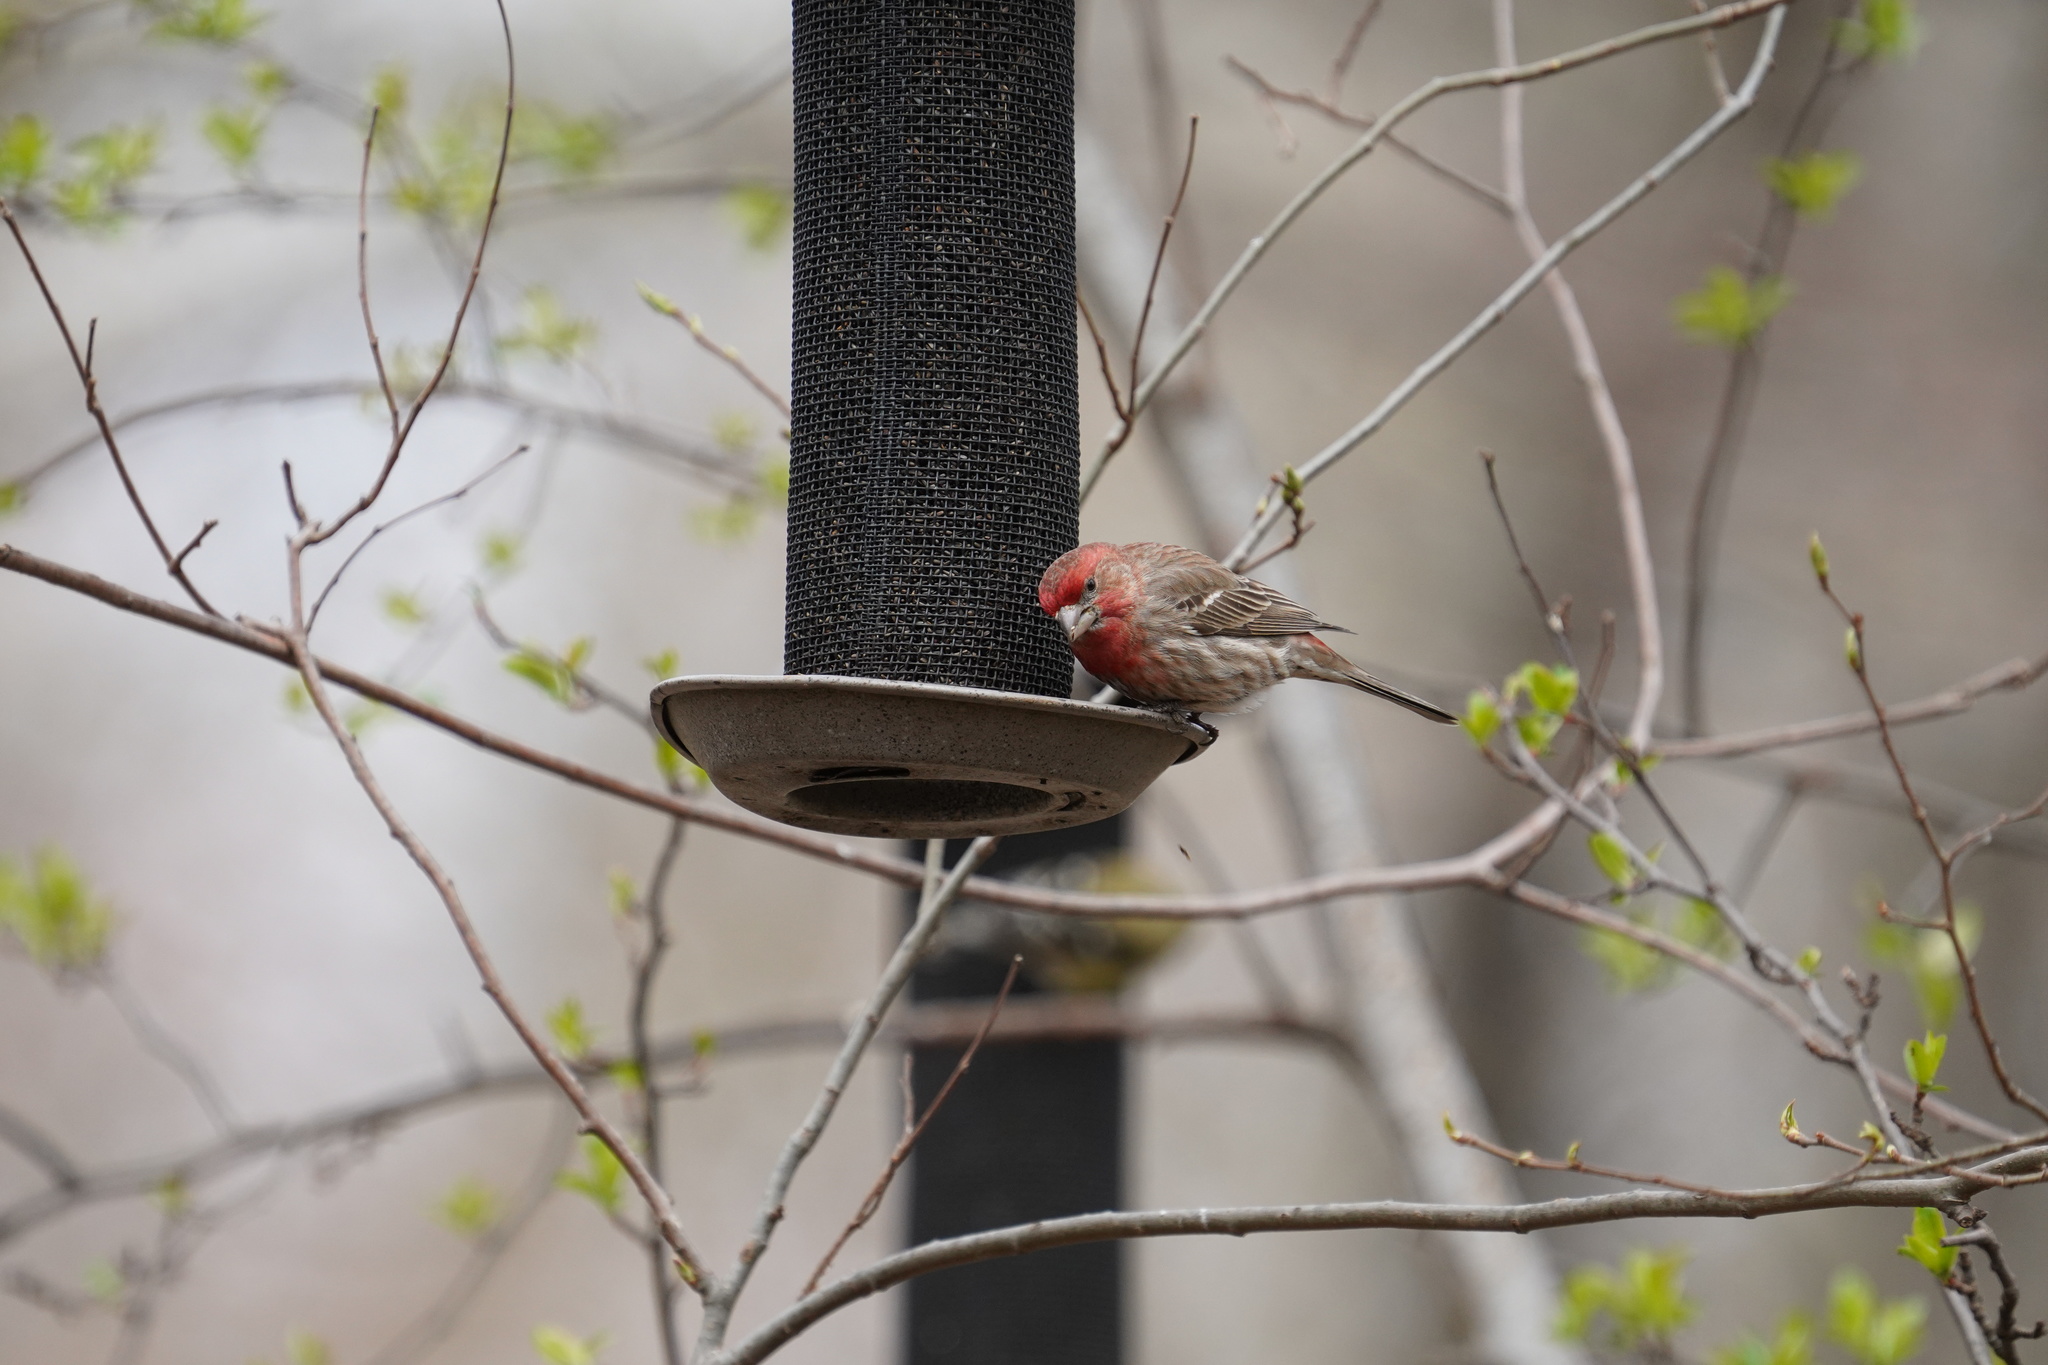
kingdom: Animalia
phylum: Chordata
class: Aves
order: Passeriformes
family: Fringillidae
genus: Haemorhous
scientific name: Haemorhous mexicanus
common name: House finch
